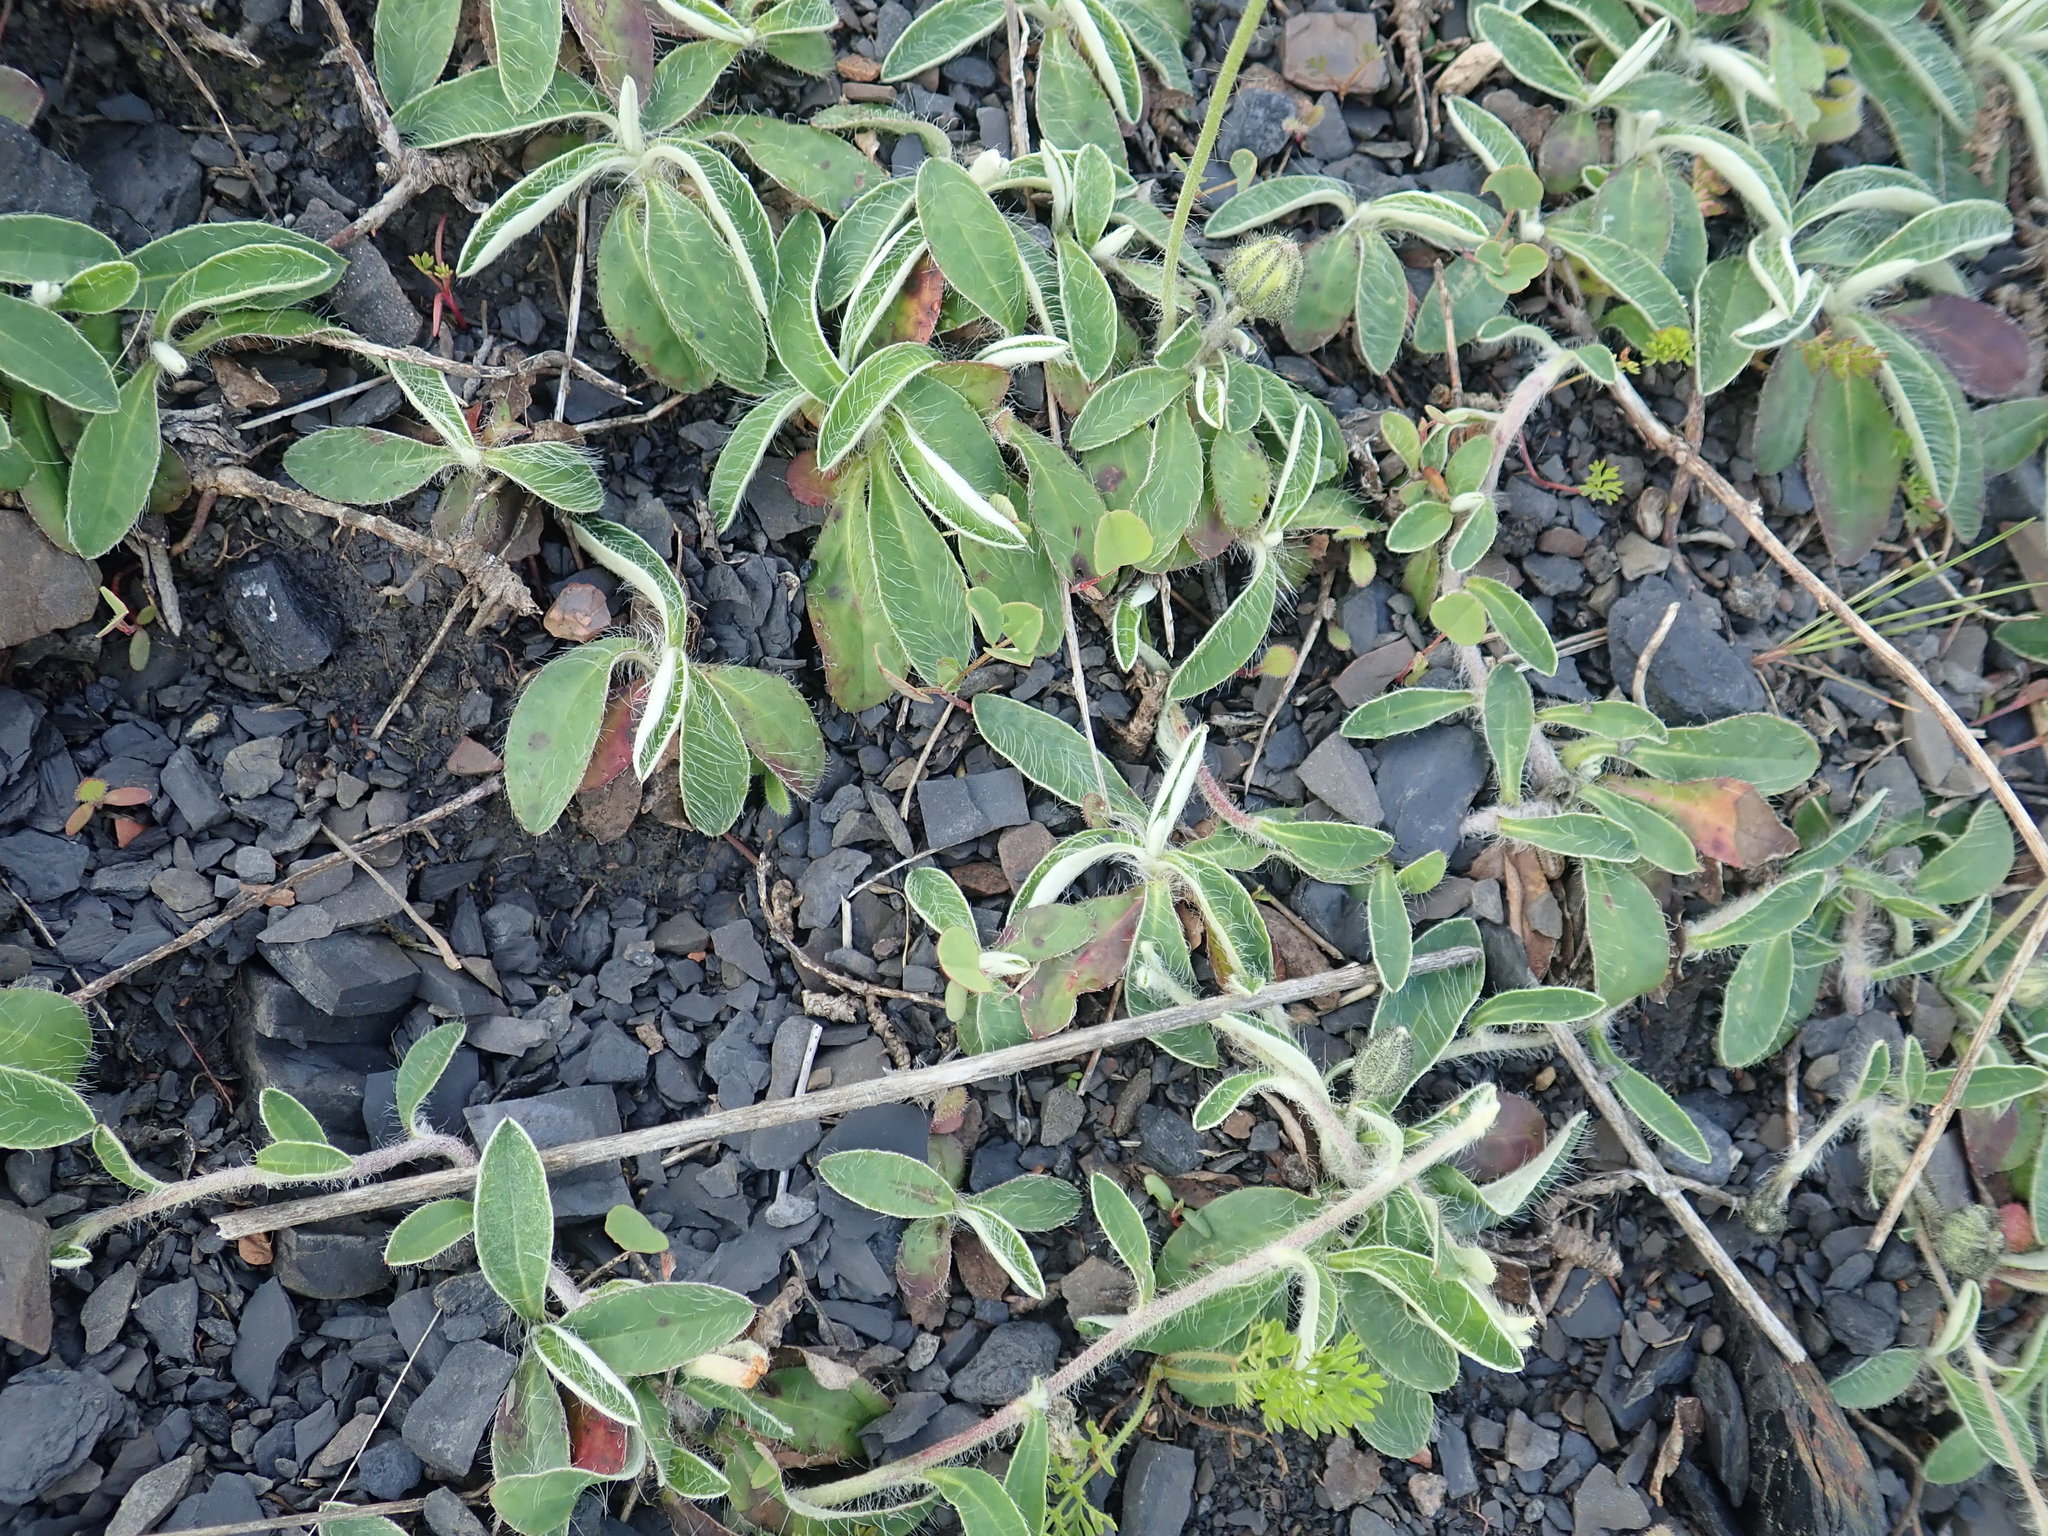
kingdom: Plantae
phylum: Tracheophyta
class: Magnoliopsida
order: Asterales
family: Asteraceae
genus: Pilosella
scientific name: Pilosella officinarum
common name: Mouse-ear hawkweed
